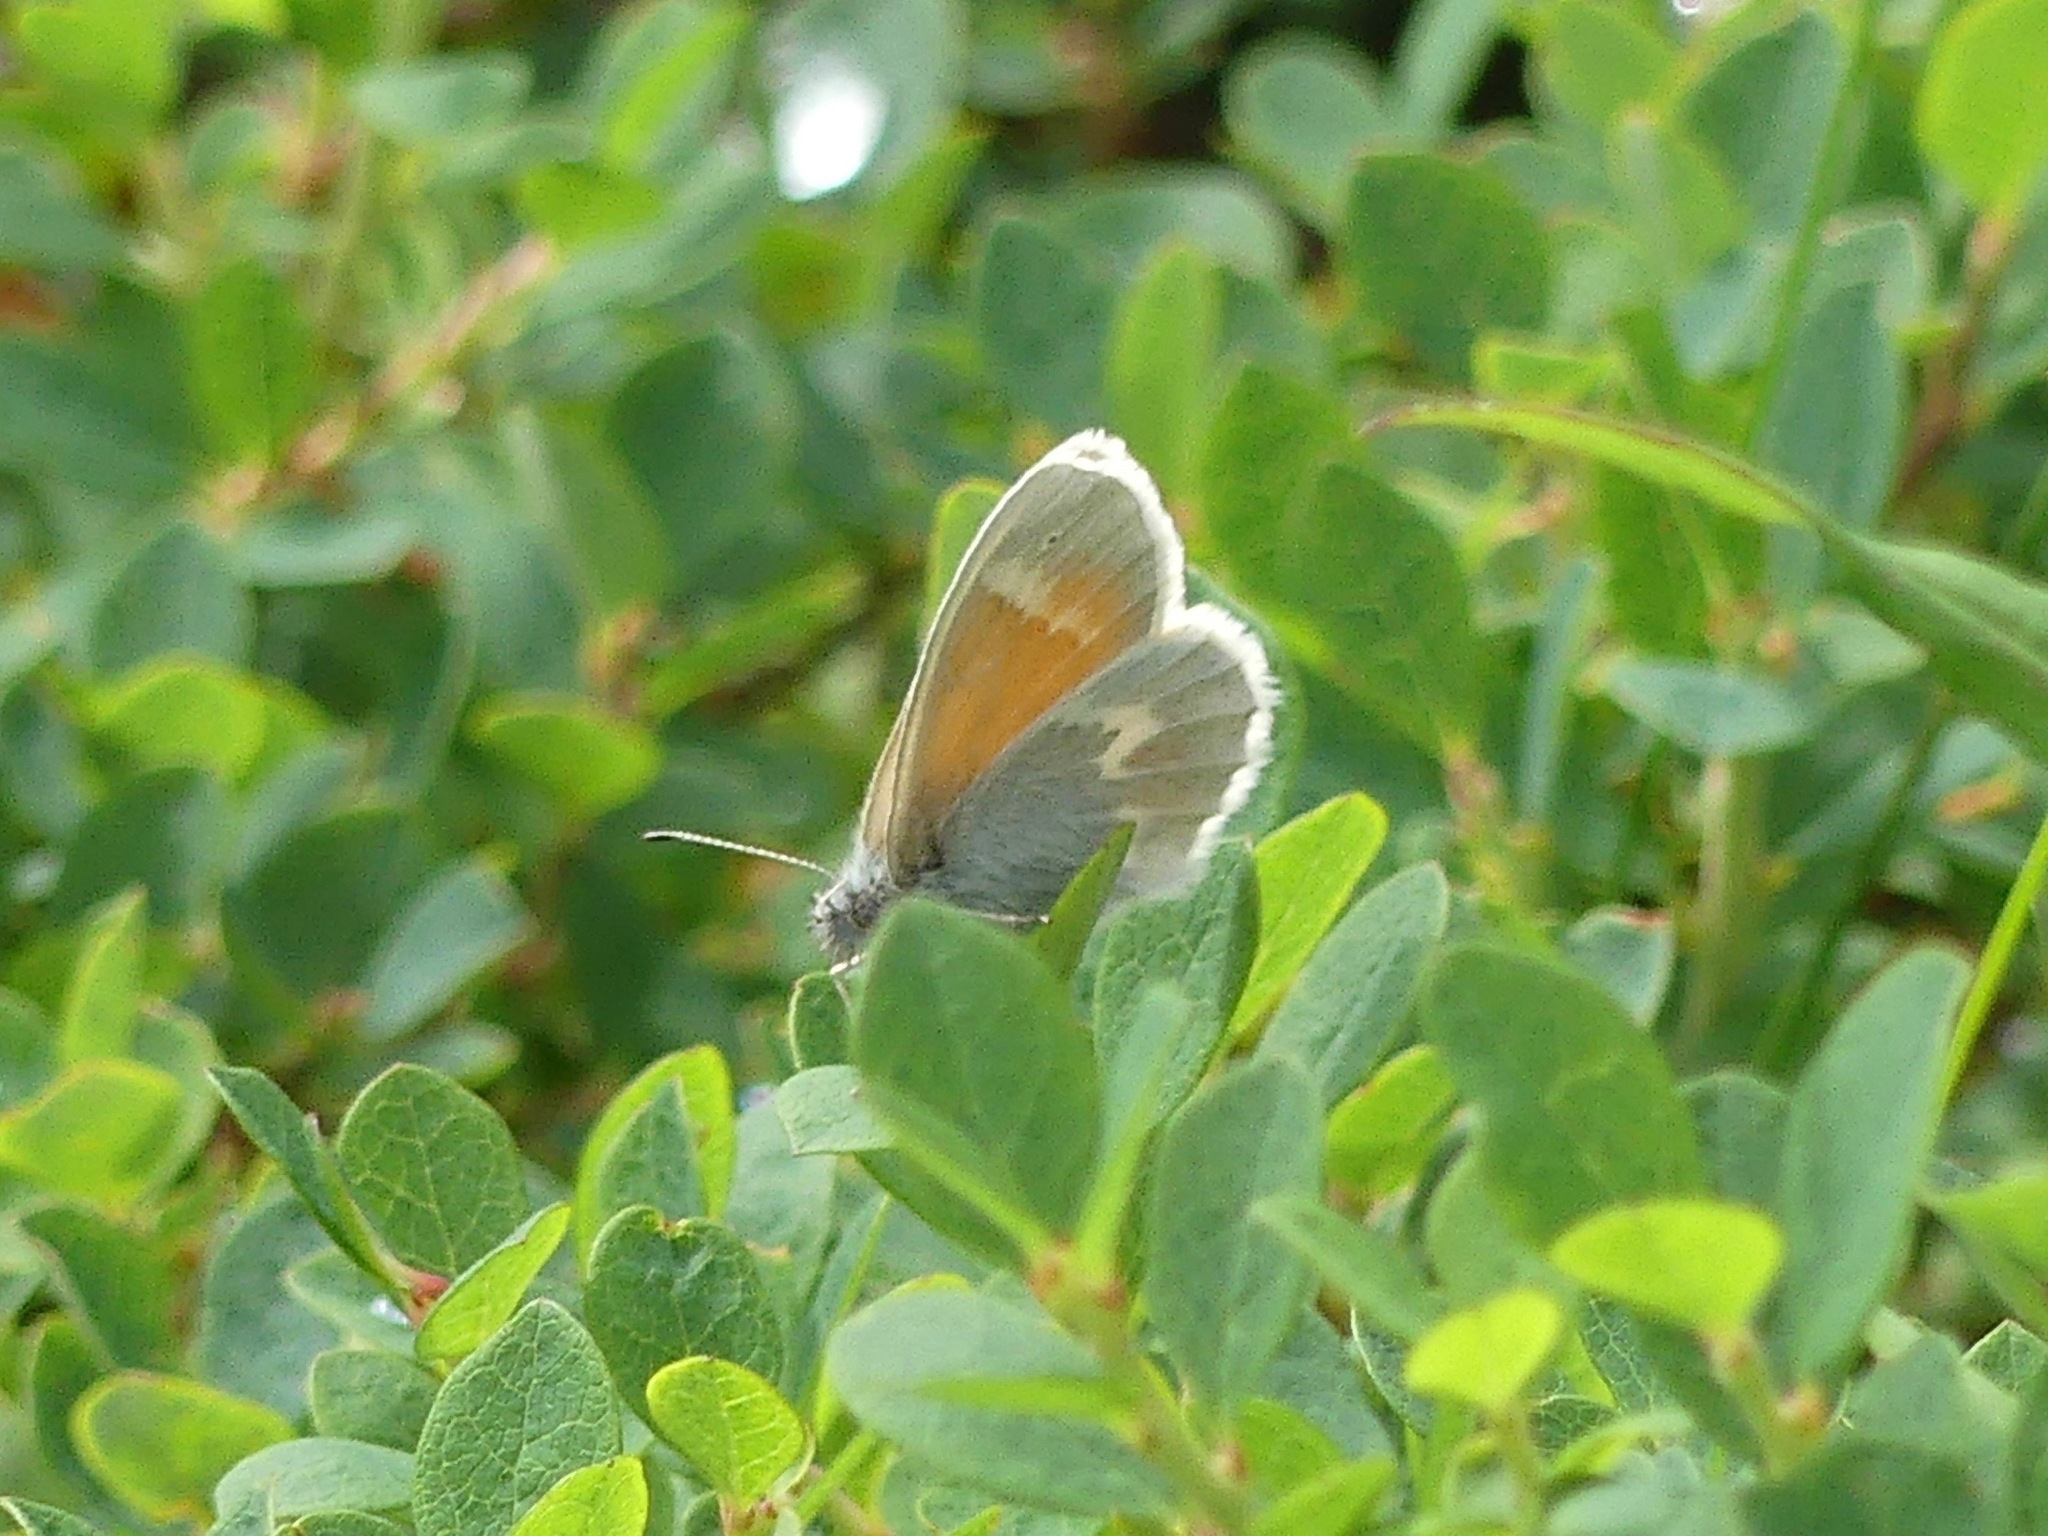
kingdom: Animalia
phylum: Arthropoda
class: Insecta
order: Lepidoptera
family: Nymphalidae
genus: Coenonympha
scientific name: Coenonympha tullia
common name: Large heath
